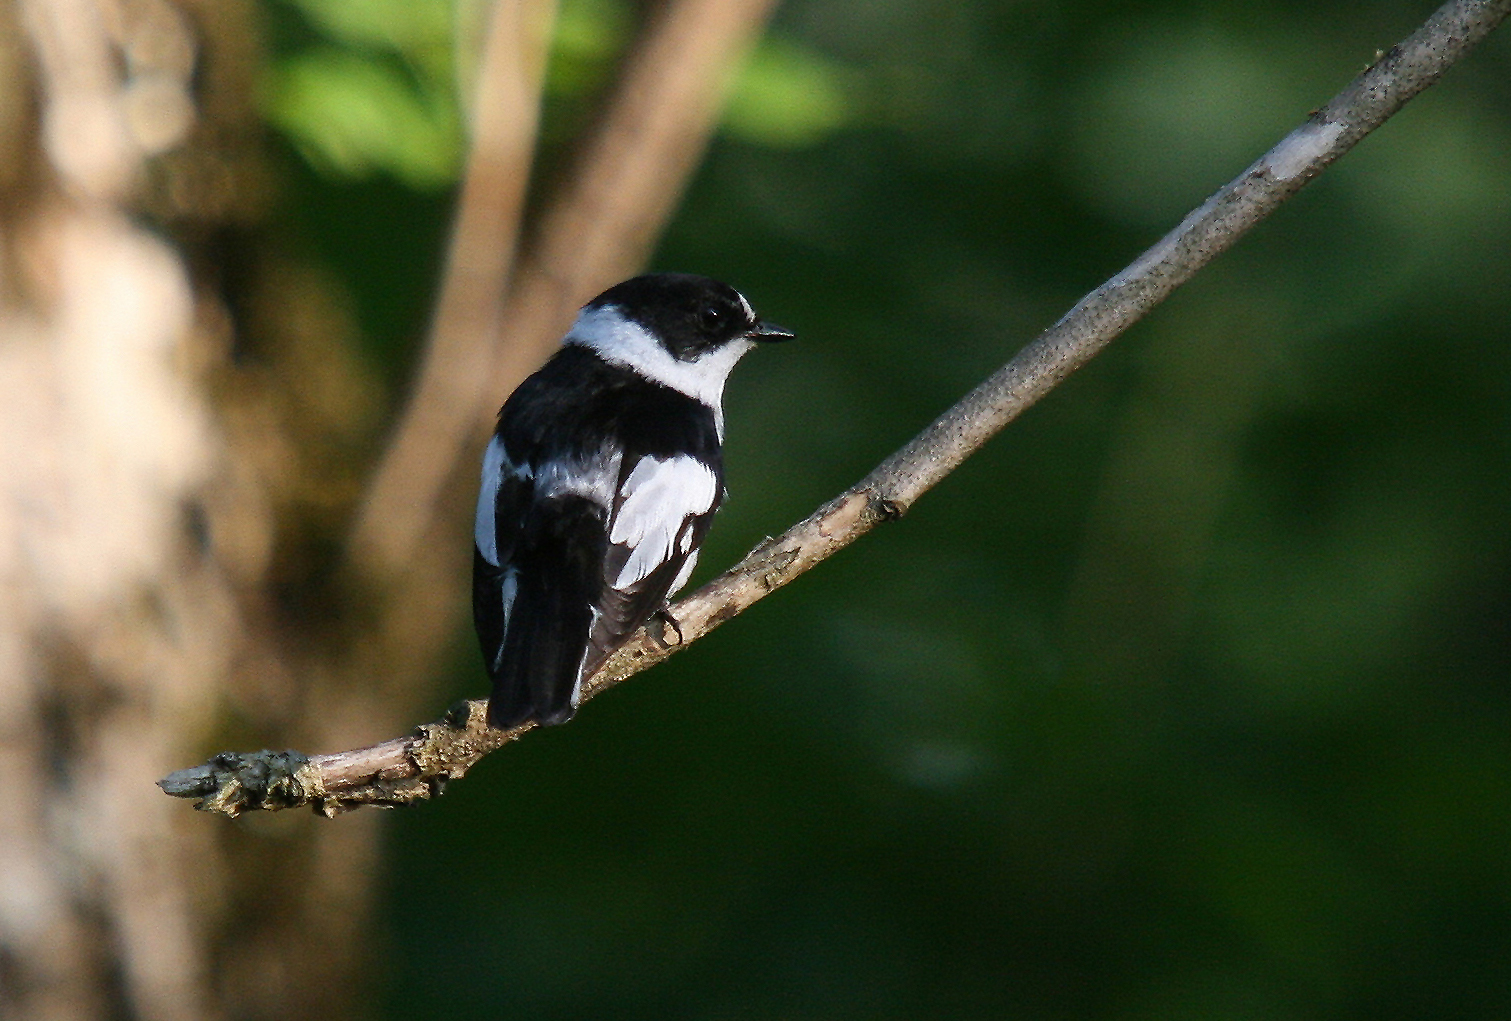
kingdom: Animalia
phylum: Chordata
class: Aves
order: Passeriformes
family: Muscicapidae
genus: Ficedula
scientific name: Ficedula albicollis
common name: Collared flycatcher
